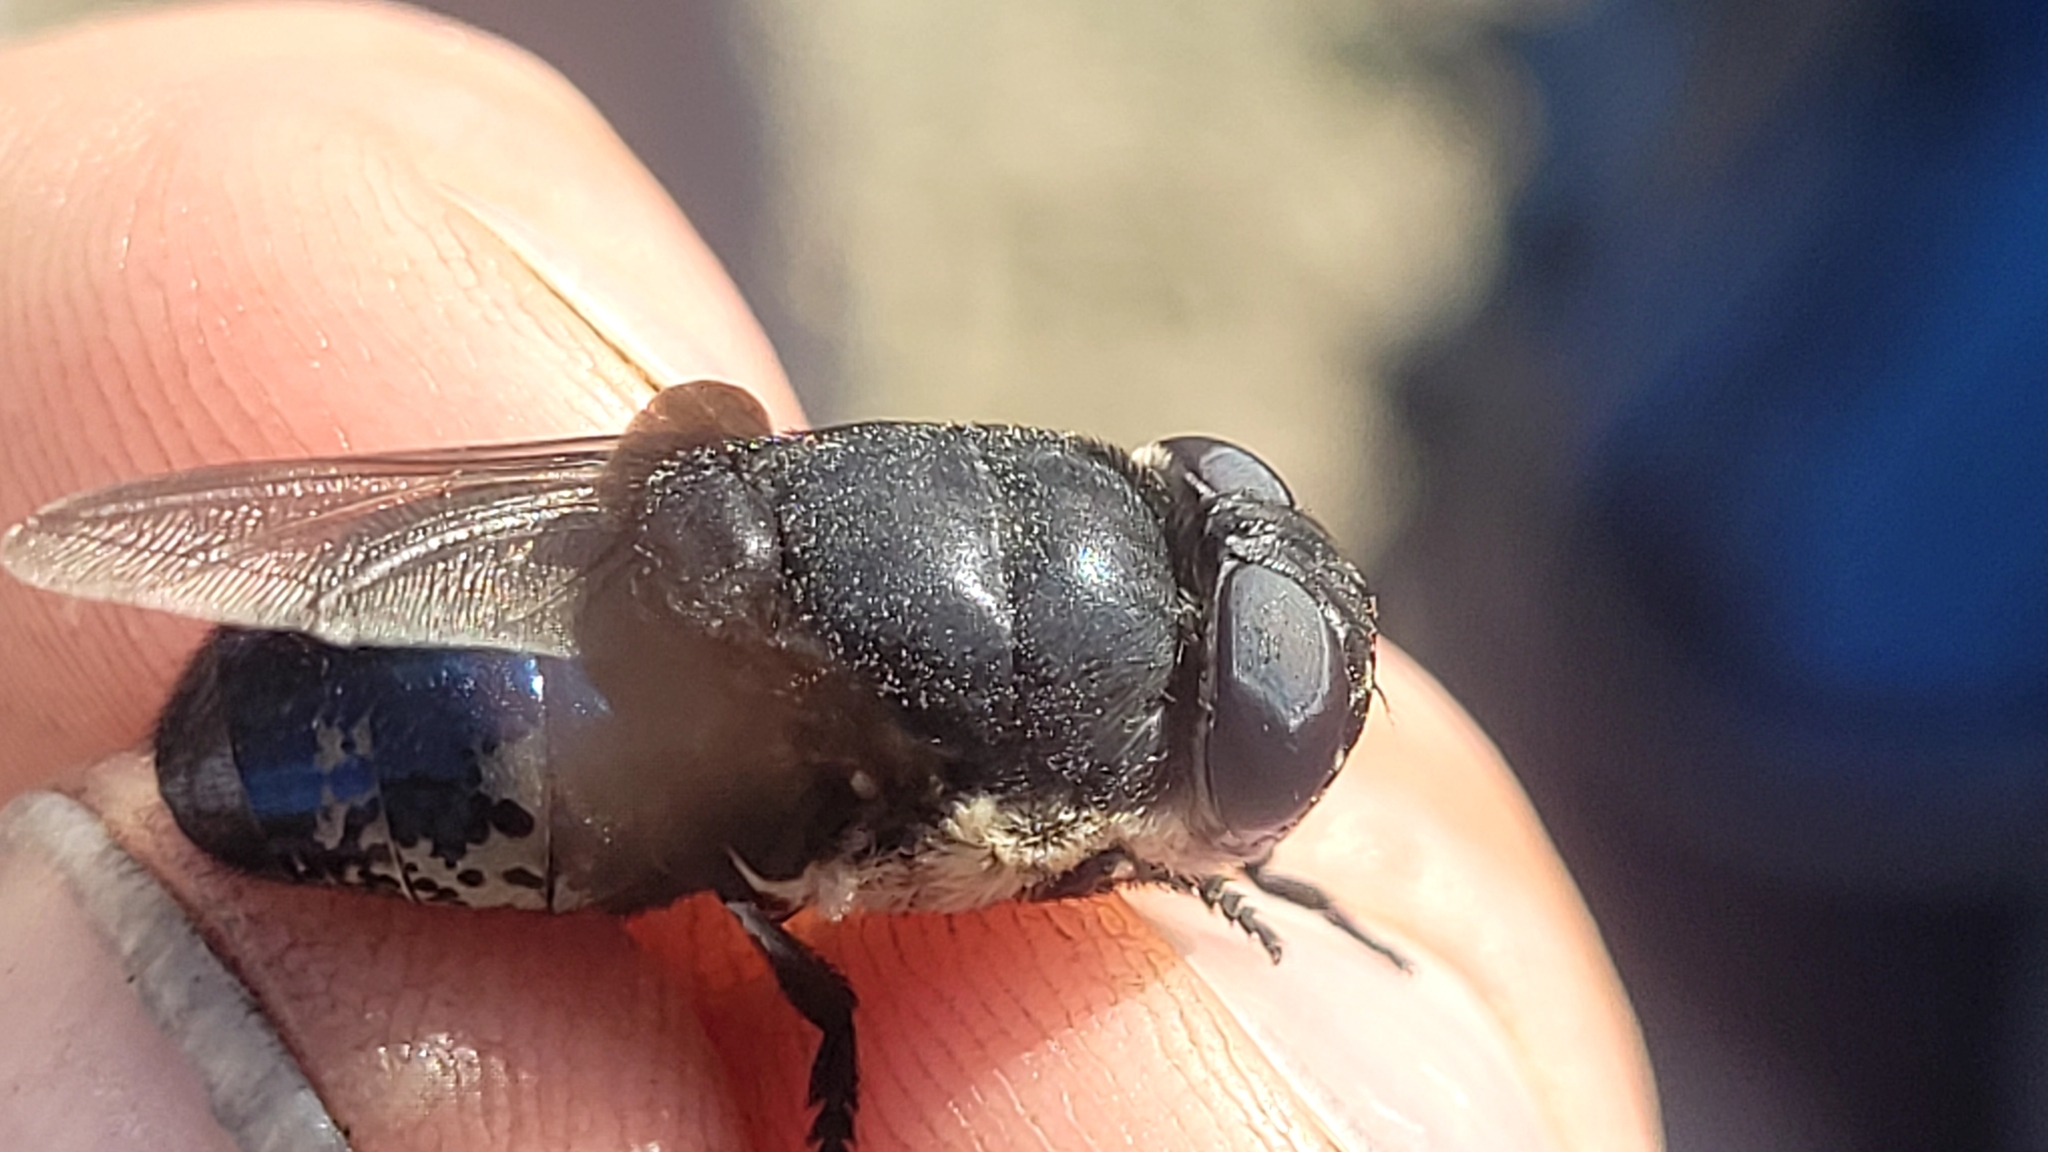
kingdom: Animalia
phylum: Arthropoda
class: Insecta
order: Diptera
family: Oestridae
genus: Cuterebra
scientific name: Cuterebra approximata
